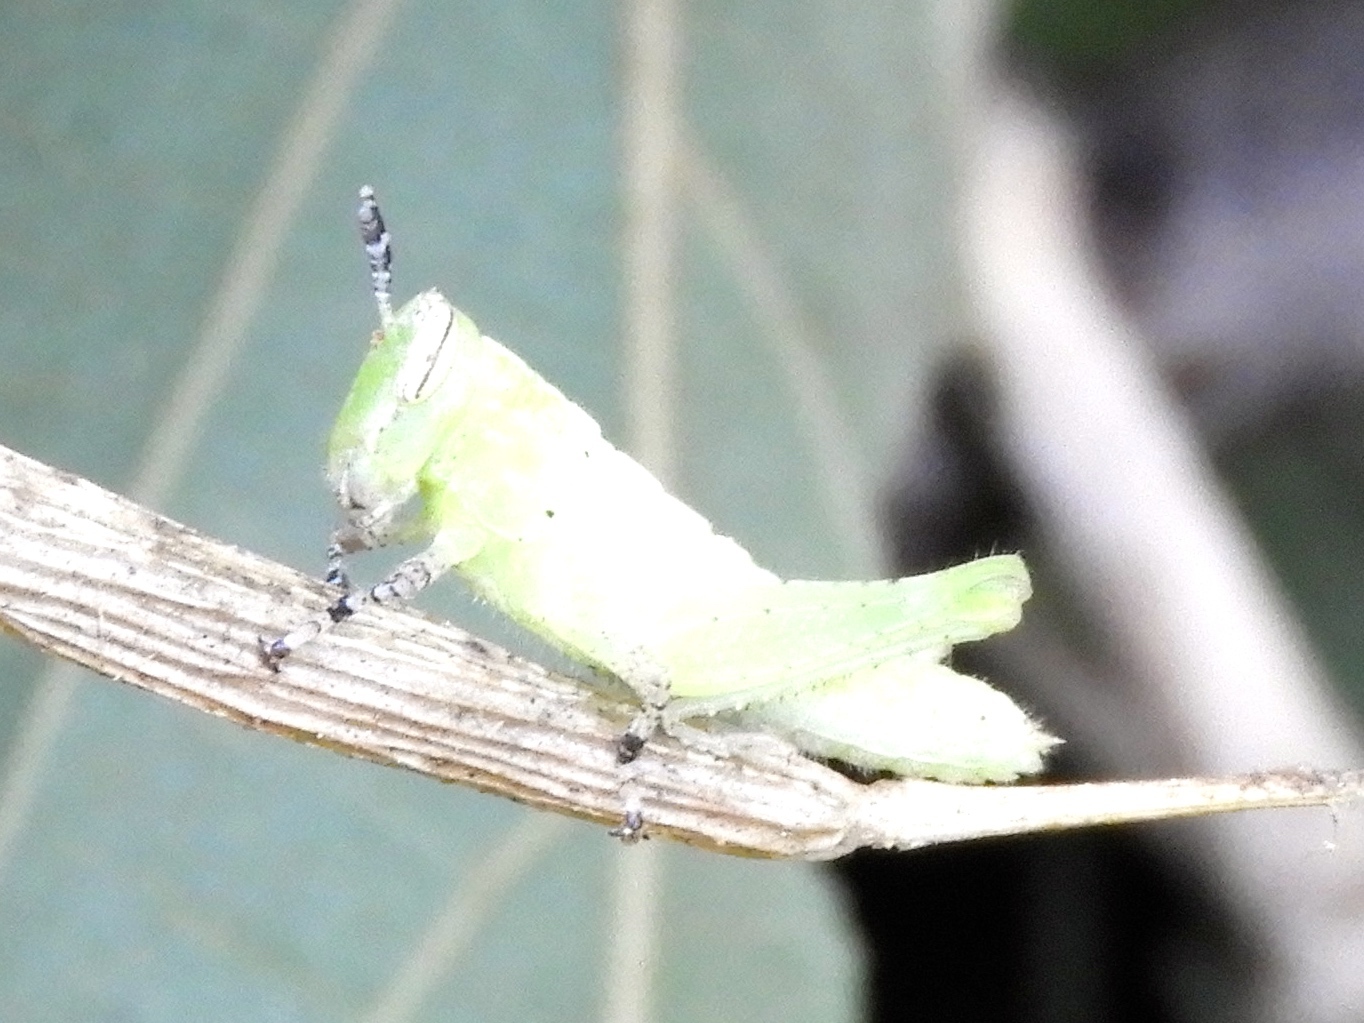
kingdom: Animalia
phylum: Arthropoda
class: Insecta
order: Orthoptera
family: Acrididae
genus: Abracris
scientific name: Abracris flavolineata
